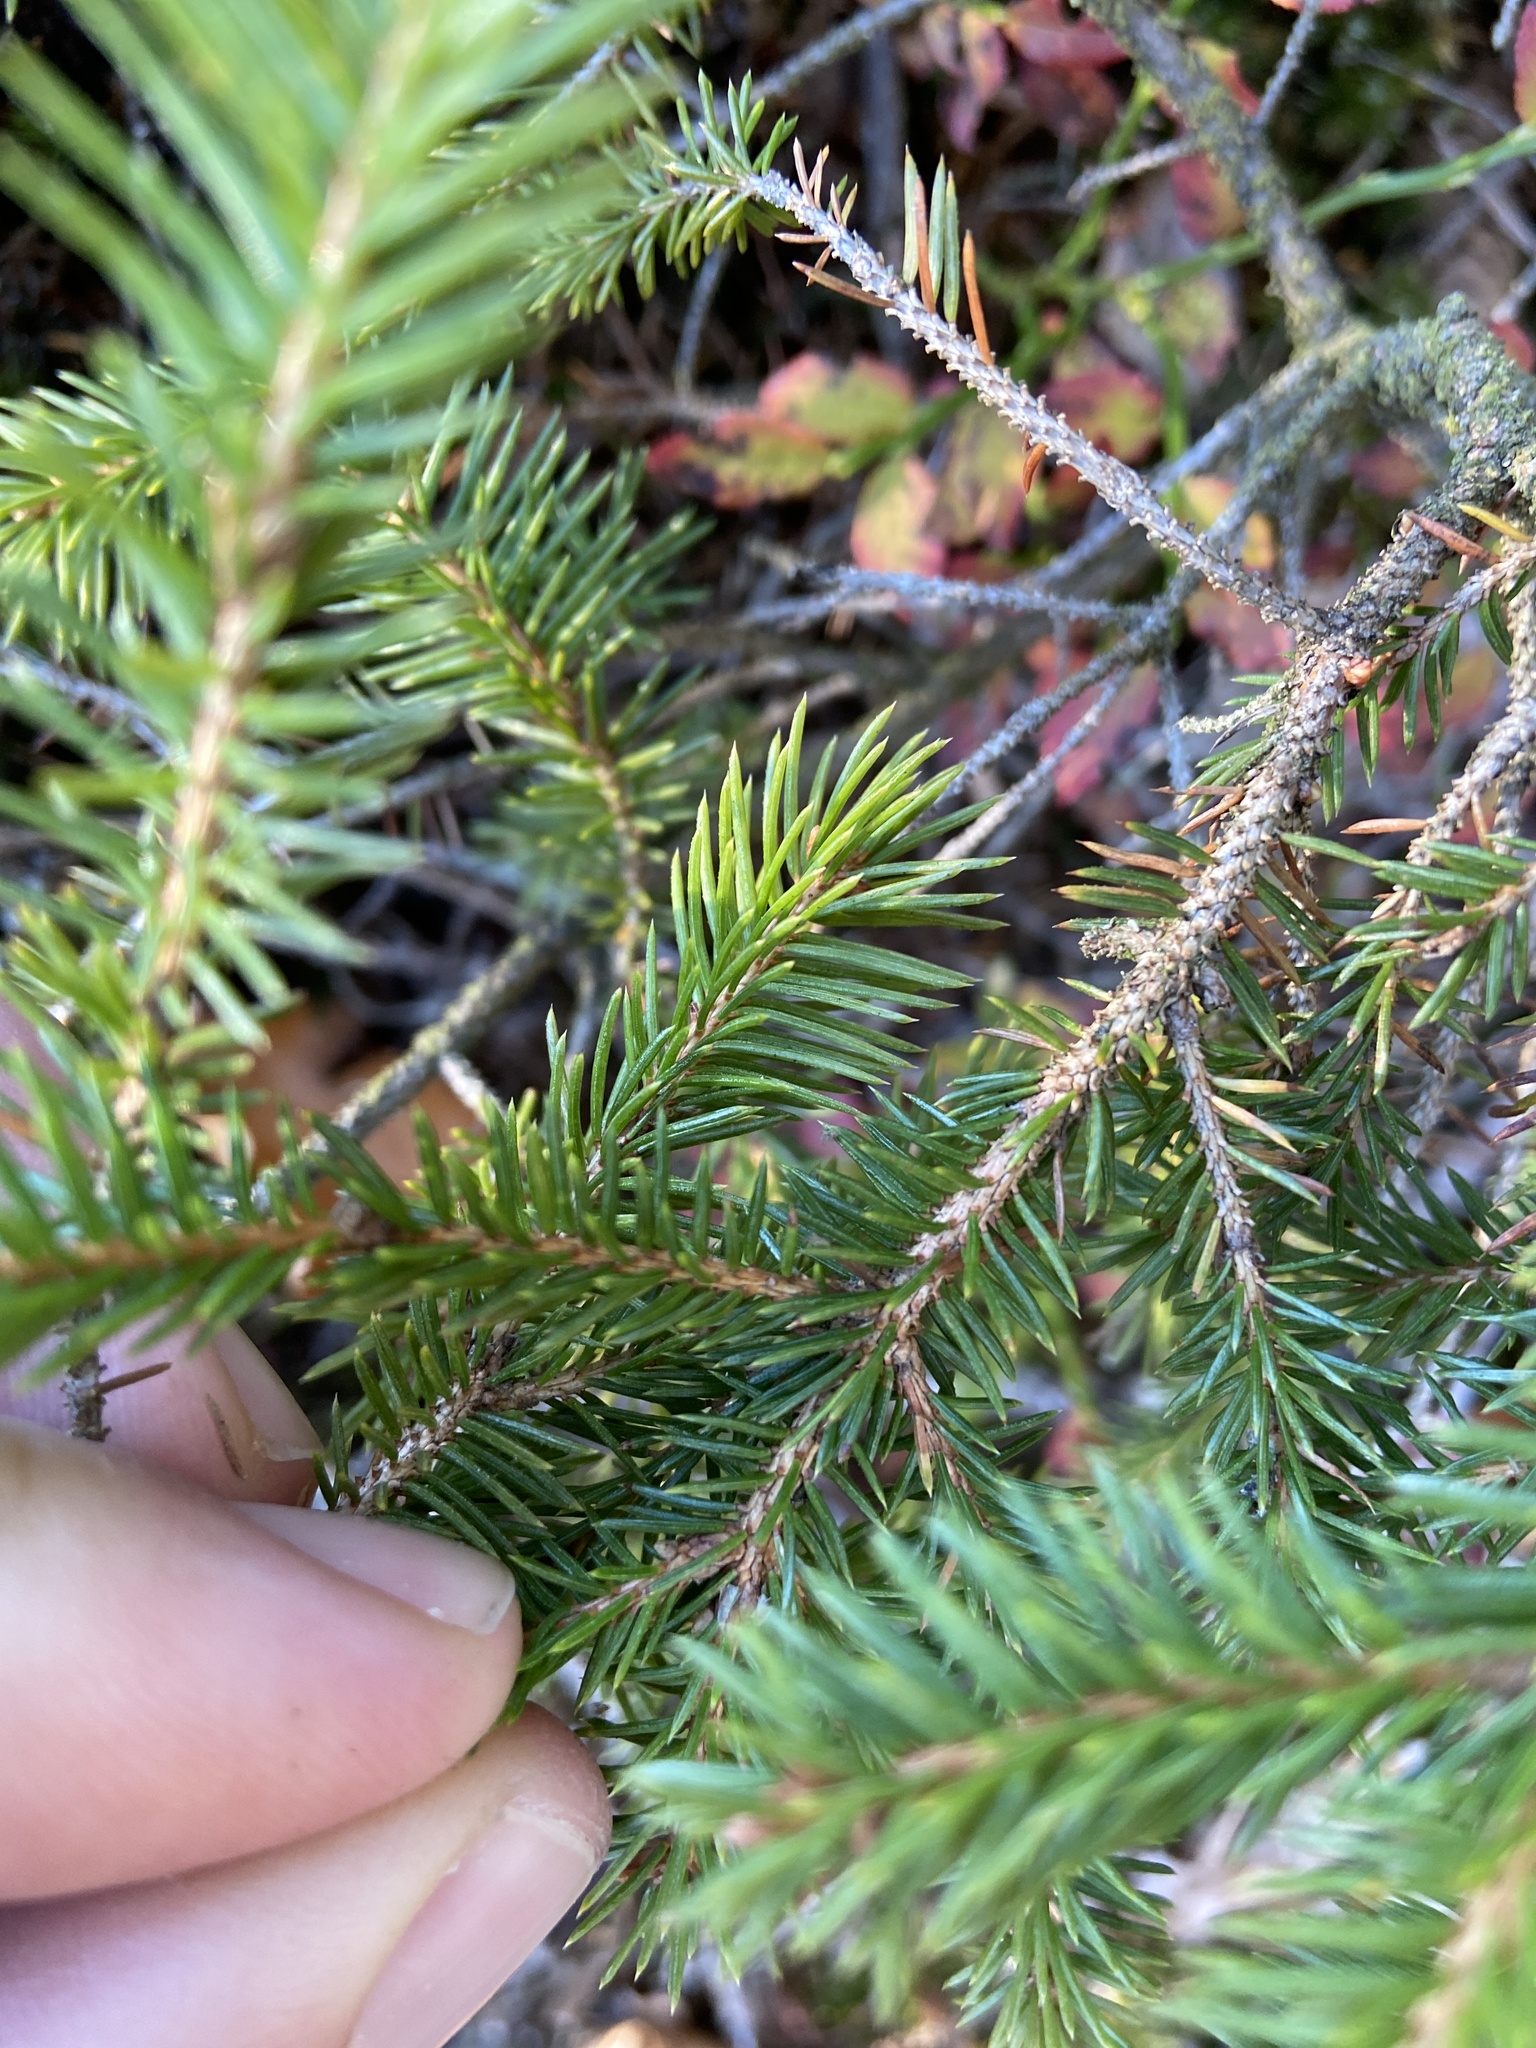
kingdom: Plantae
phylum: Tracheophyta
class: Pinopsida
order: Pinales
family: Pinaceae
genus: Picea
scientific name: Picea abies
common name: Norway spruce
